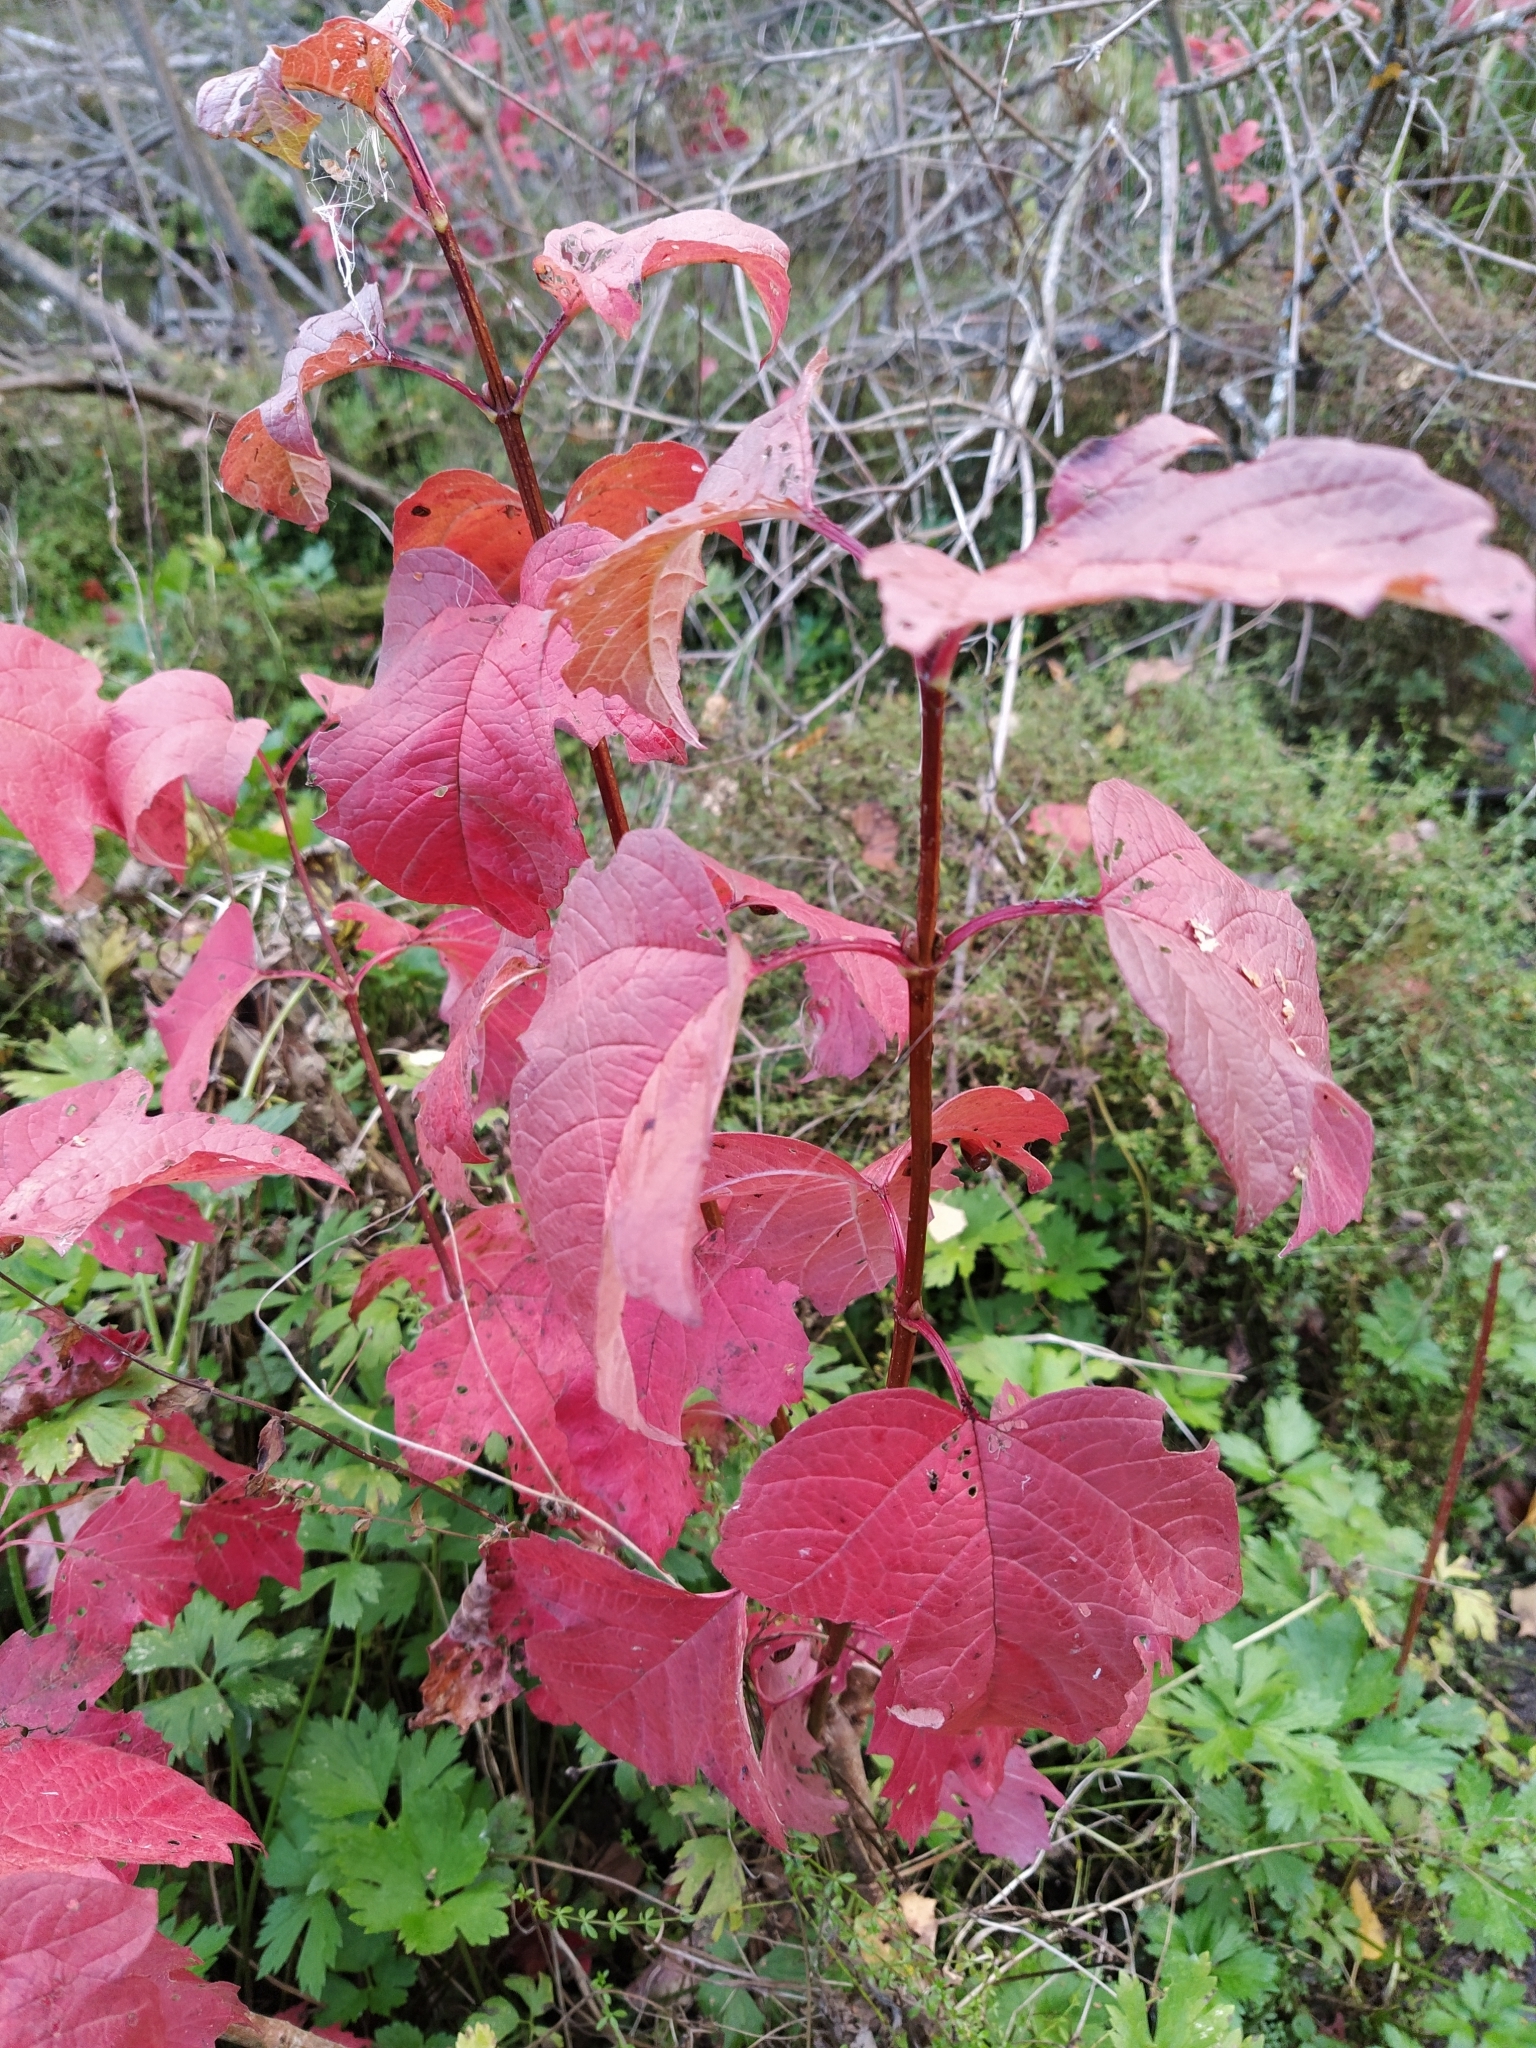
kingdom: Plantae
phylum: Tracheophyta
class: Magnoliopsida
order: Dipsacales
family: Viburnaceae
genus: Viburnum
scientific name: Viburnum opulus
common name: Guelder-rose
